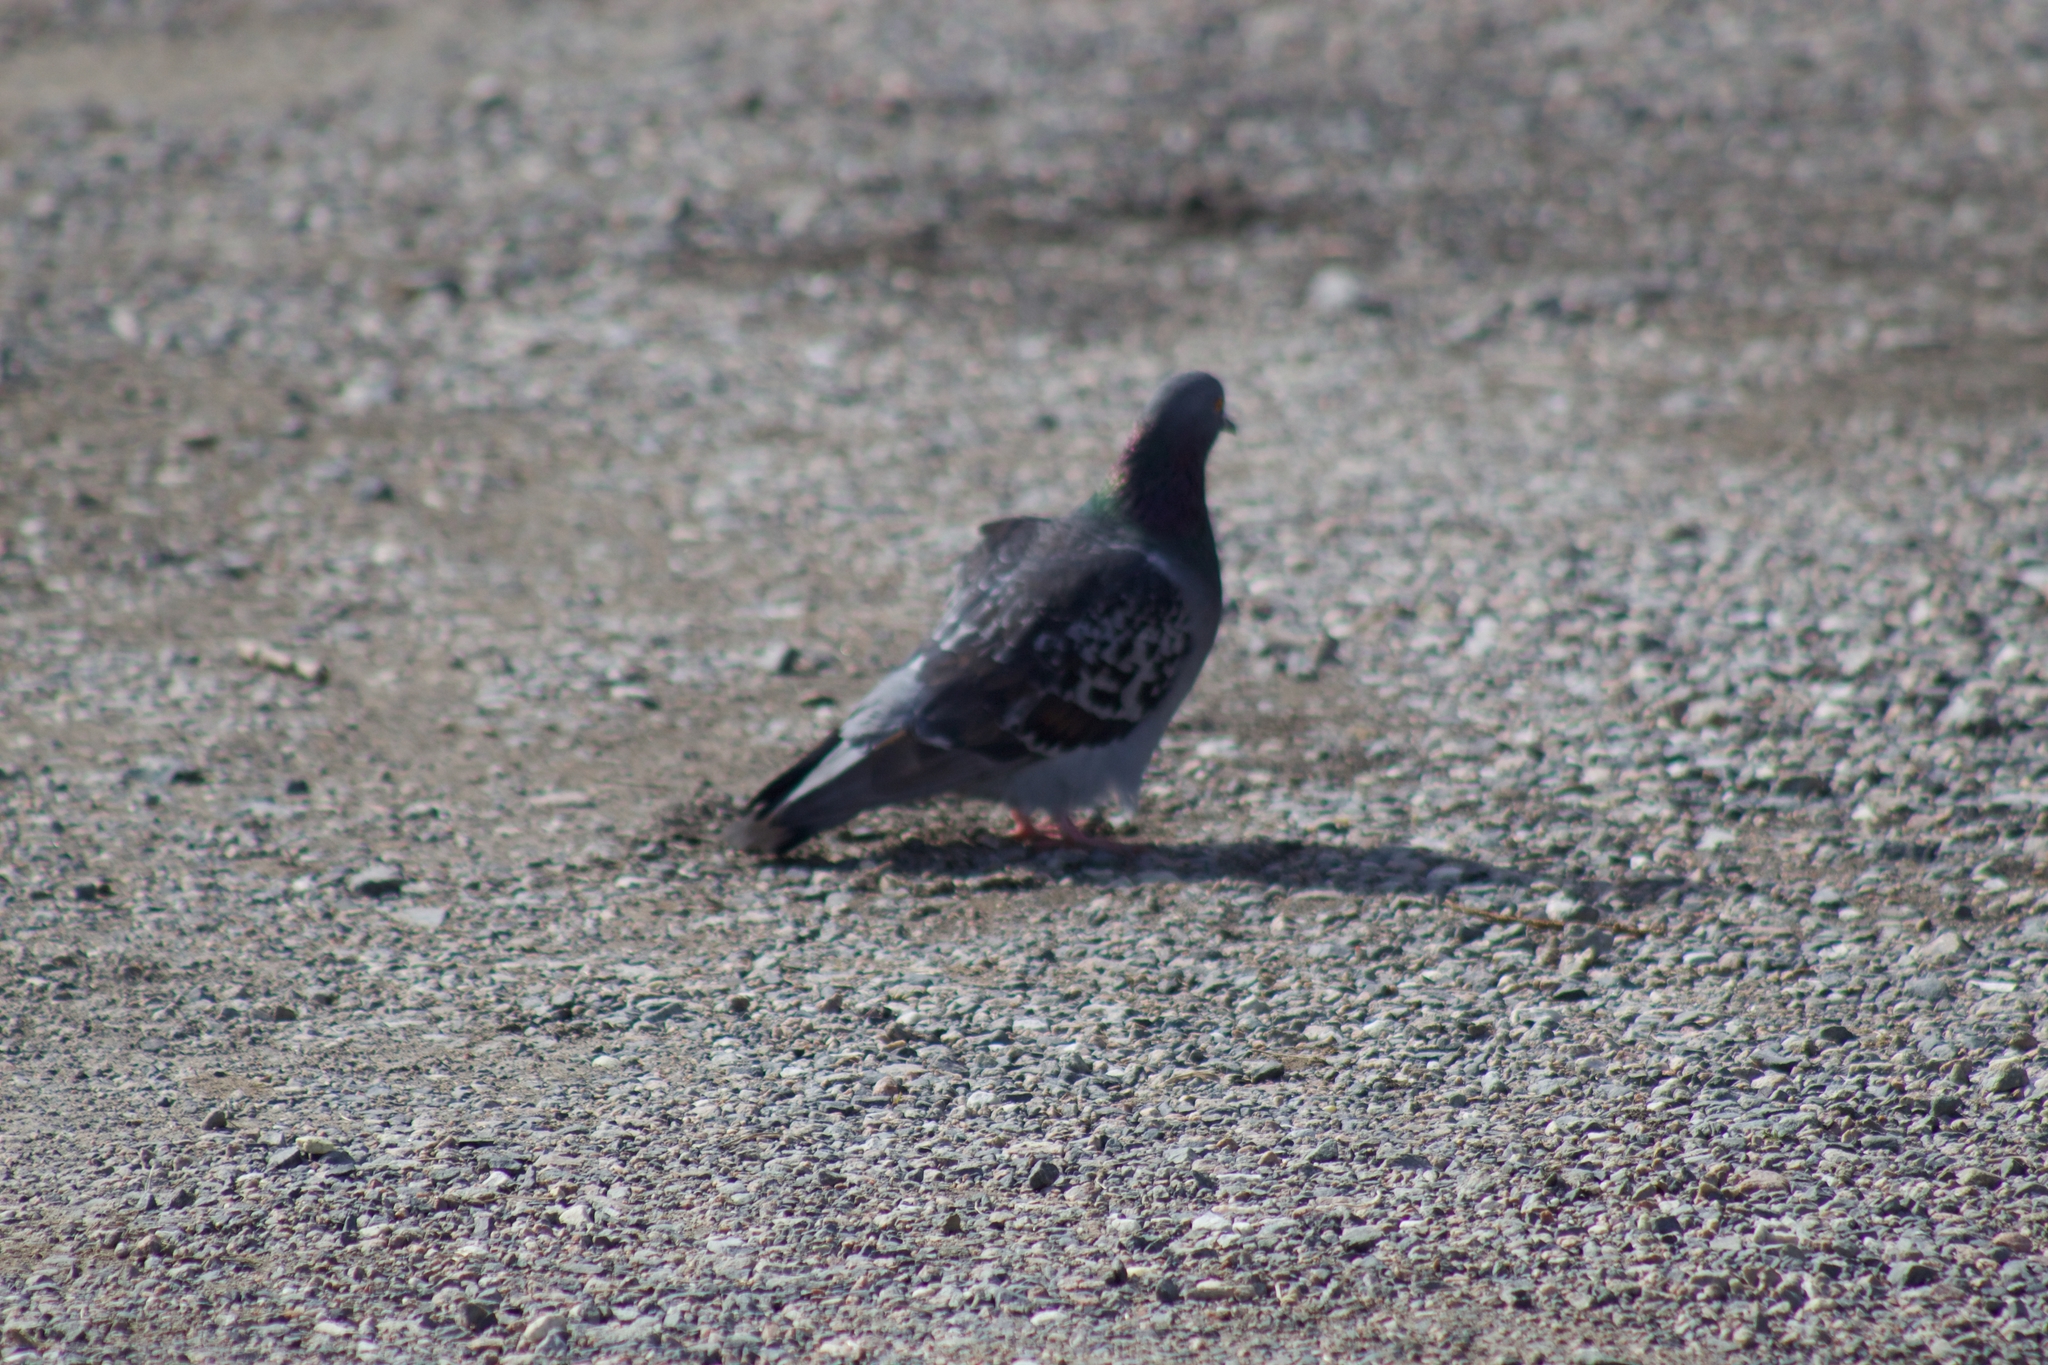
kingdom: Animalia
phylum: Chordata
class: Aves
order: Columbiformes
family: Columbidae
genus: Columba
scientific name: Columba livia
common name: Rock pigeon
